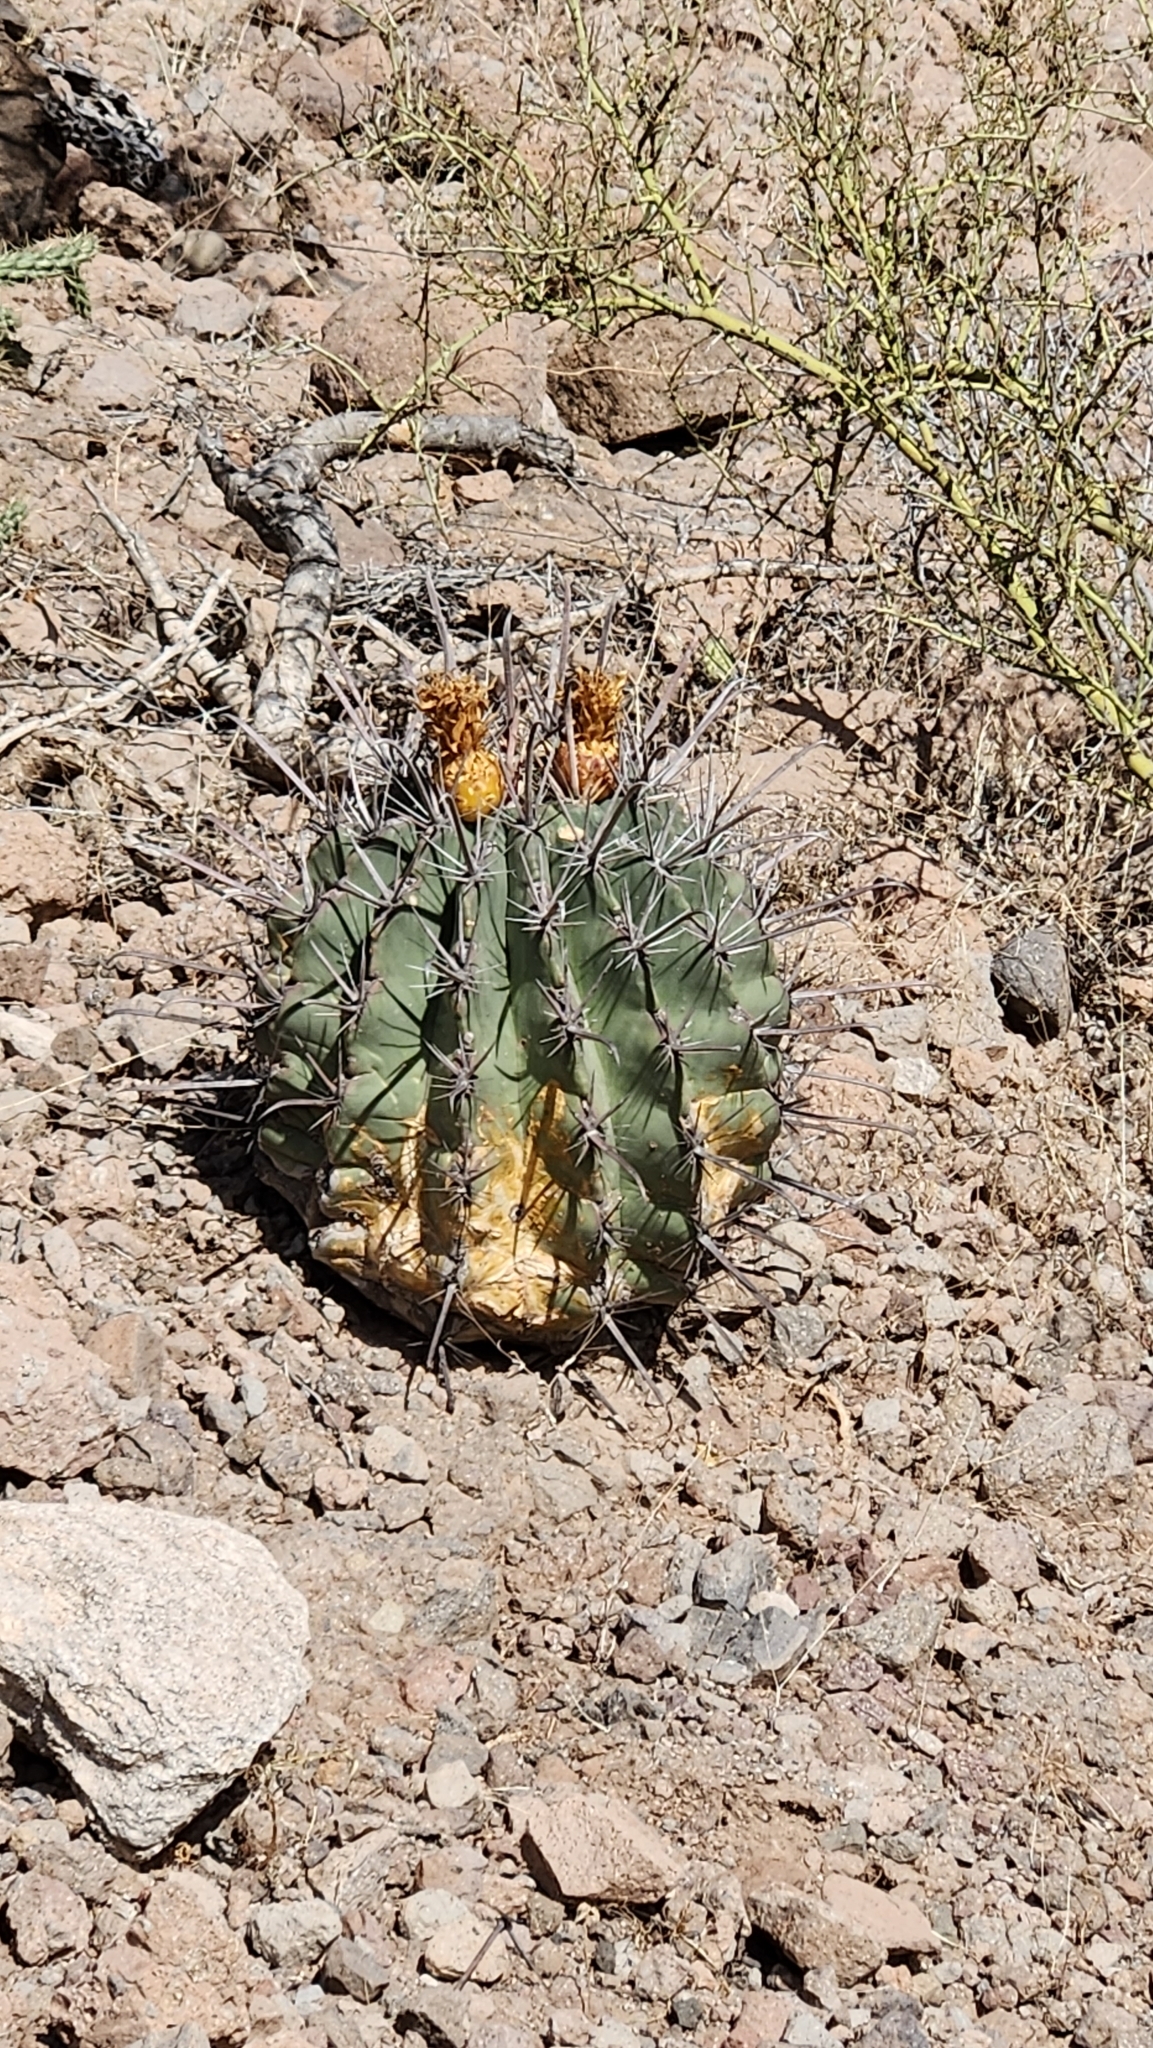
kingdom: Plantae
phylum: Tracheophyta
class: Magnoliopsida
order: Caryophyllales
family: Cactaceae
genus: Ferocactus
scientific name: Ferocactus townsendianus
